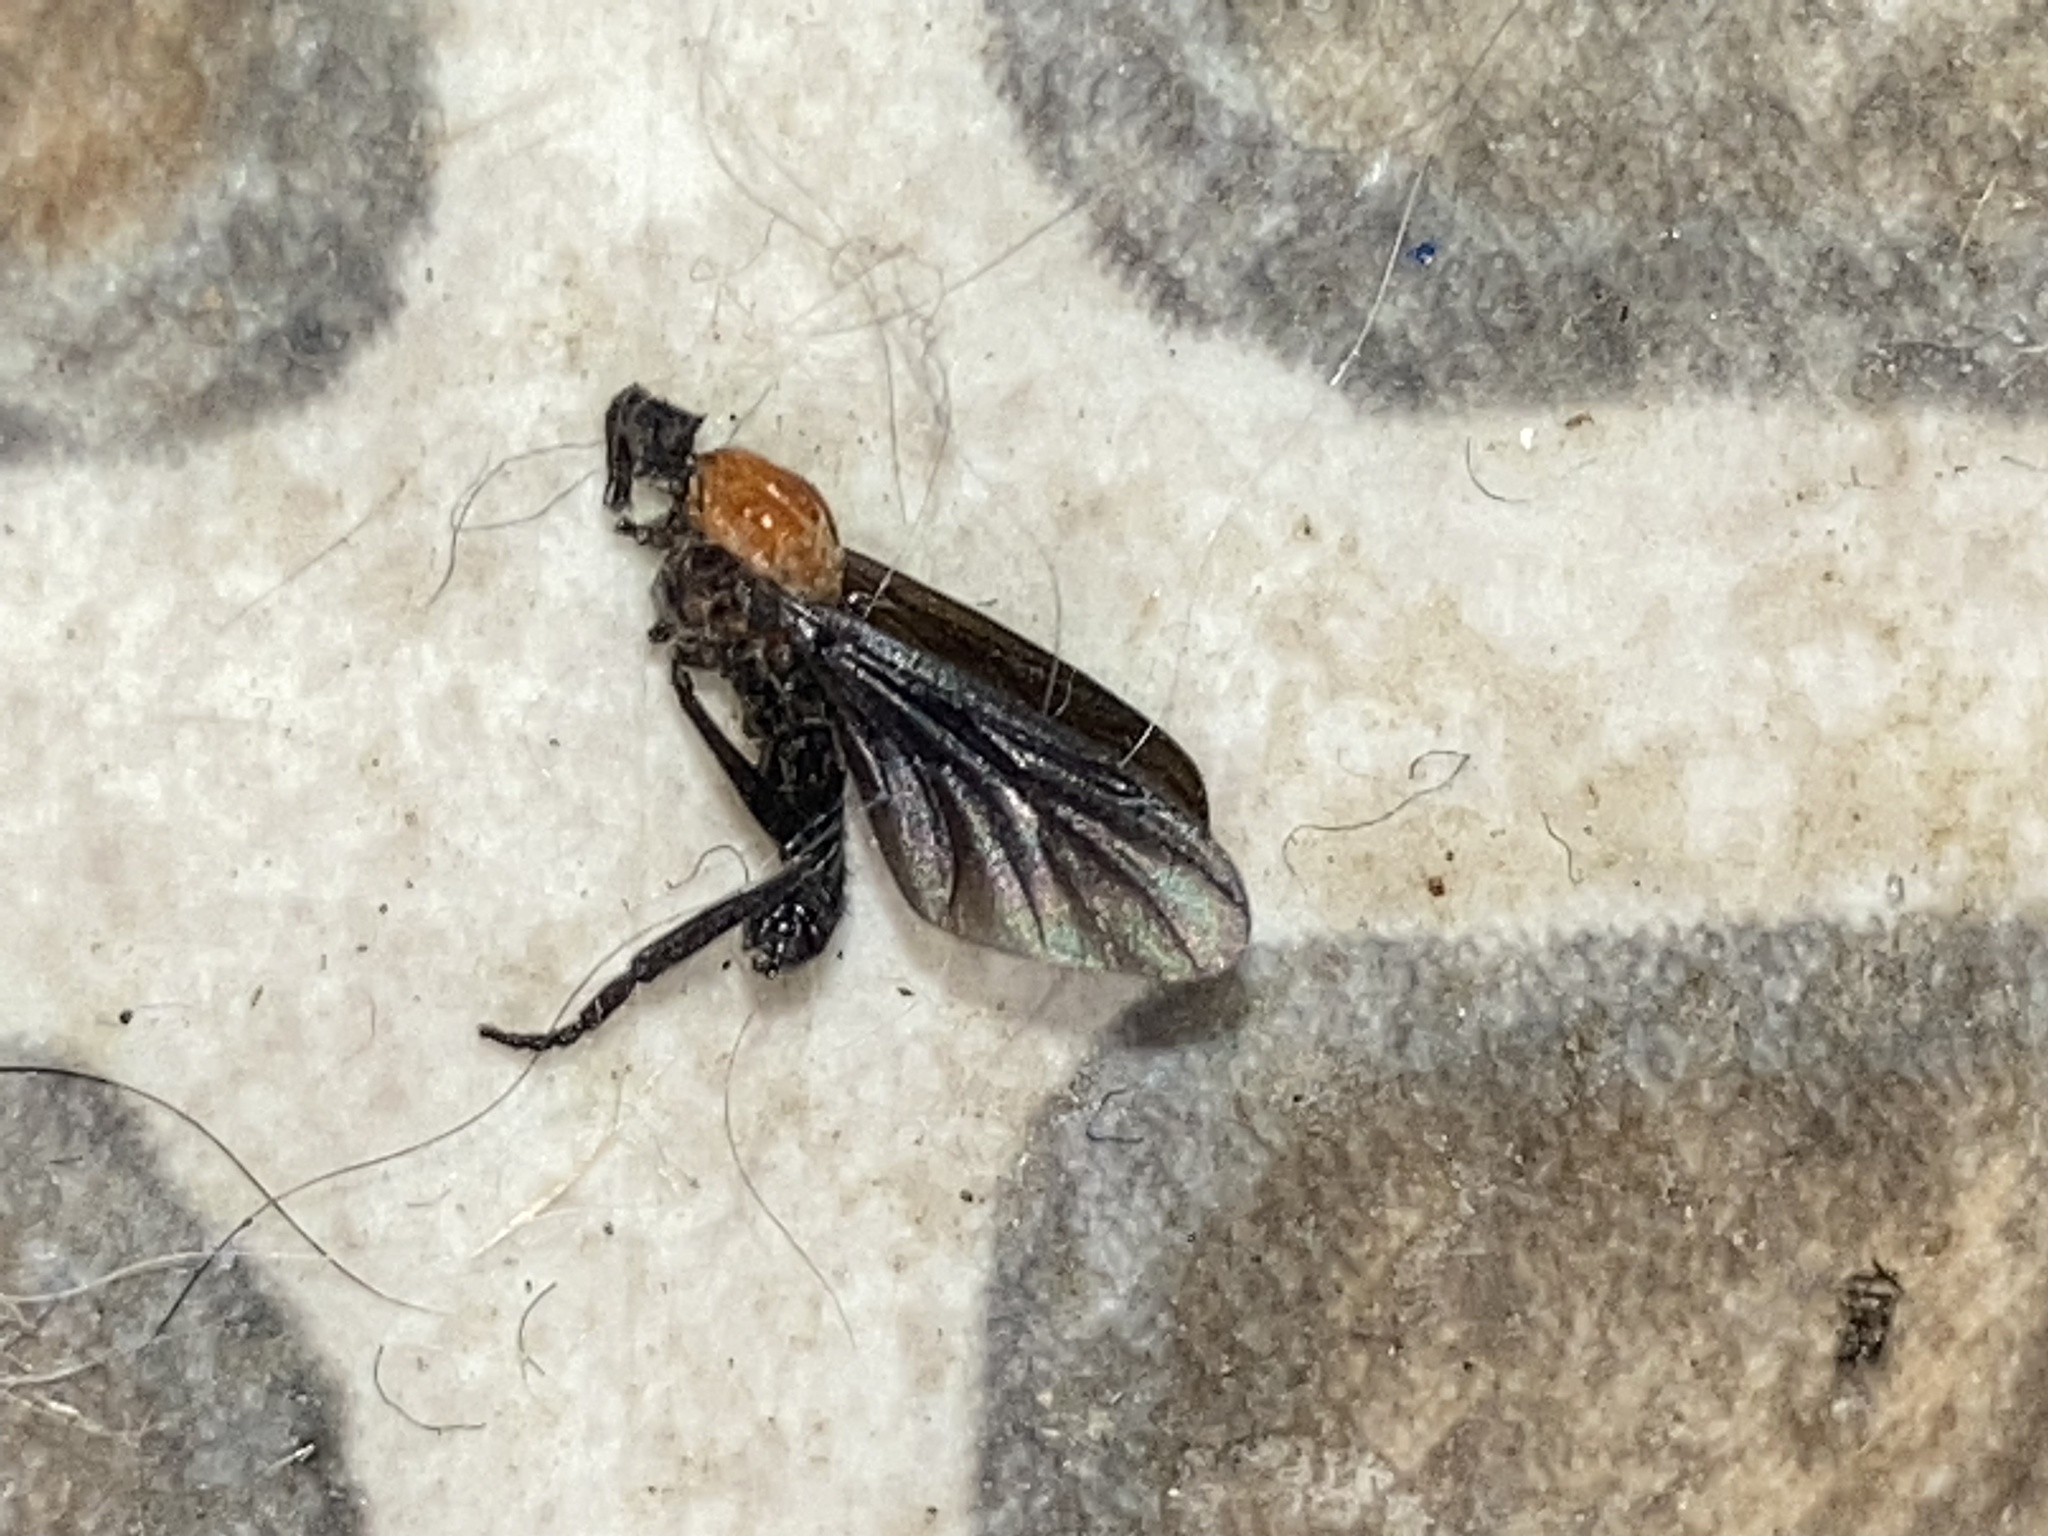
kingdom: Animalia
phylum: Arthropoda
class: Insecta
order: Diptera
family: Bibionidae
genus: Plecia
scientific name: Plecia nearctica
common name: March fly
